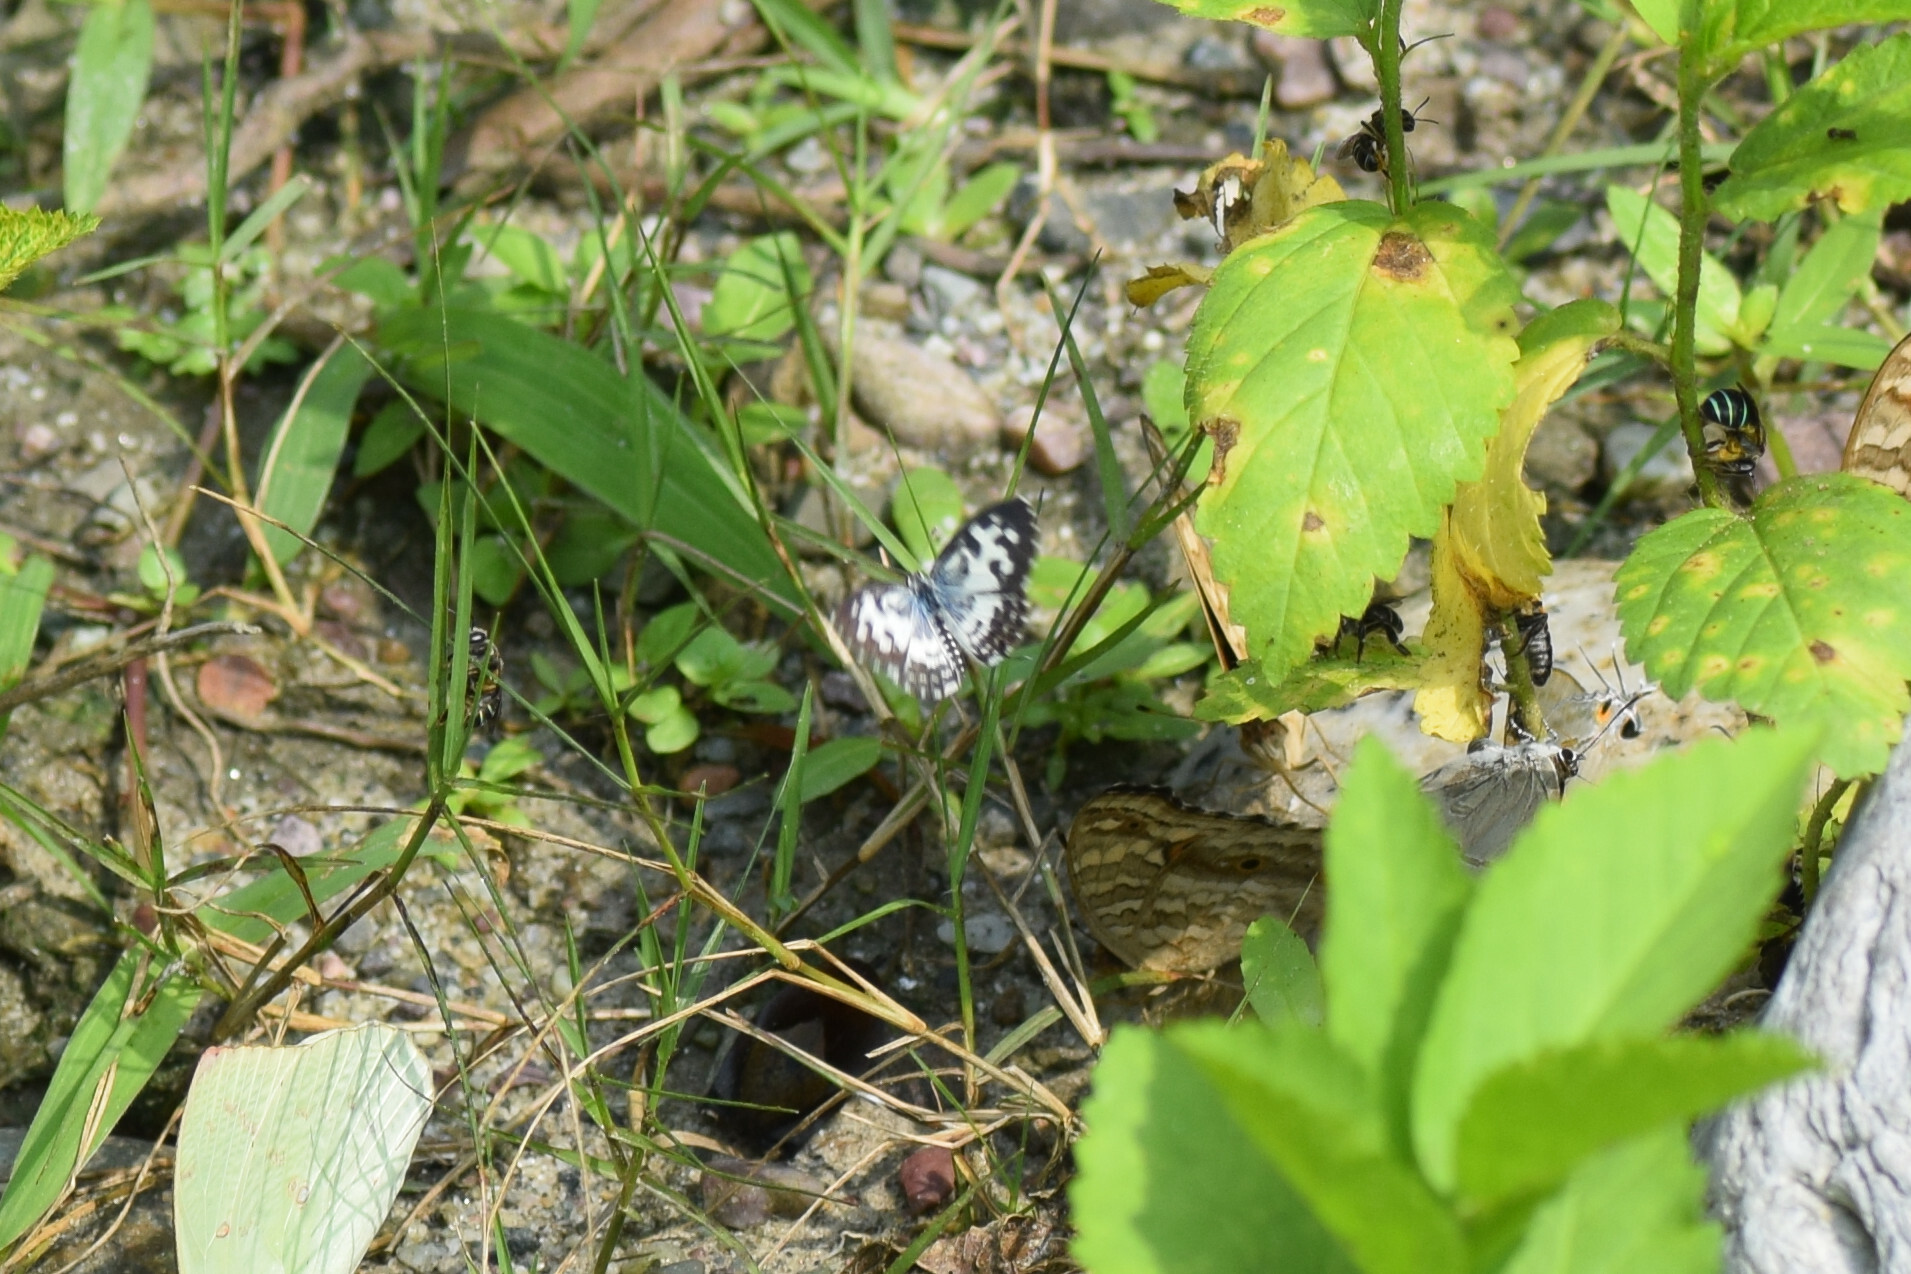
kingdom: Animalia
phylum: Arthropoda
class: Insecta
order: Lepidoptera
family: Lycaenidae
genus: Castalius
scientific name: Castalius rosimon
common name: Common pierrot
